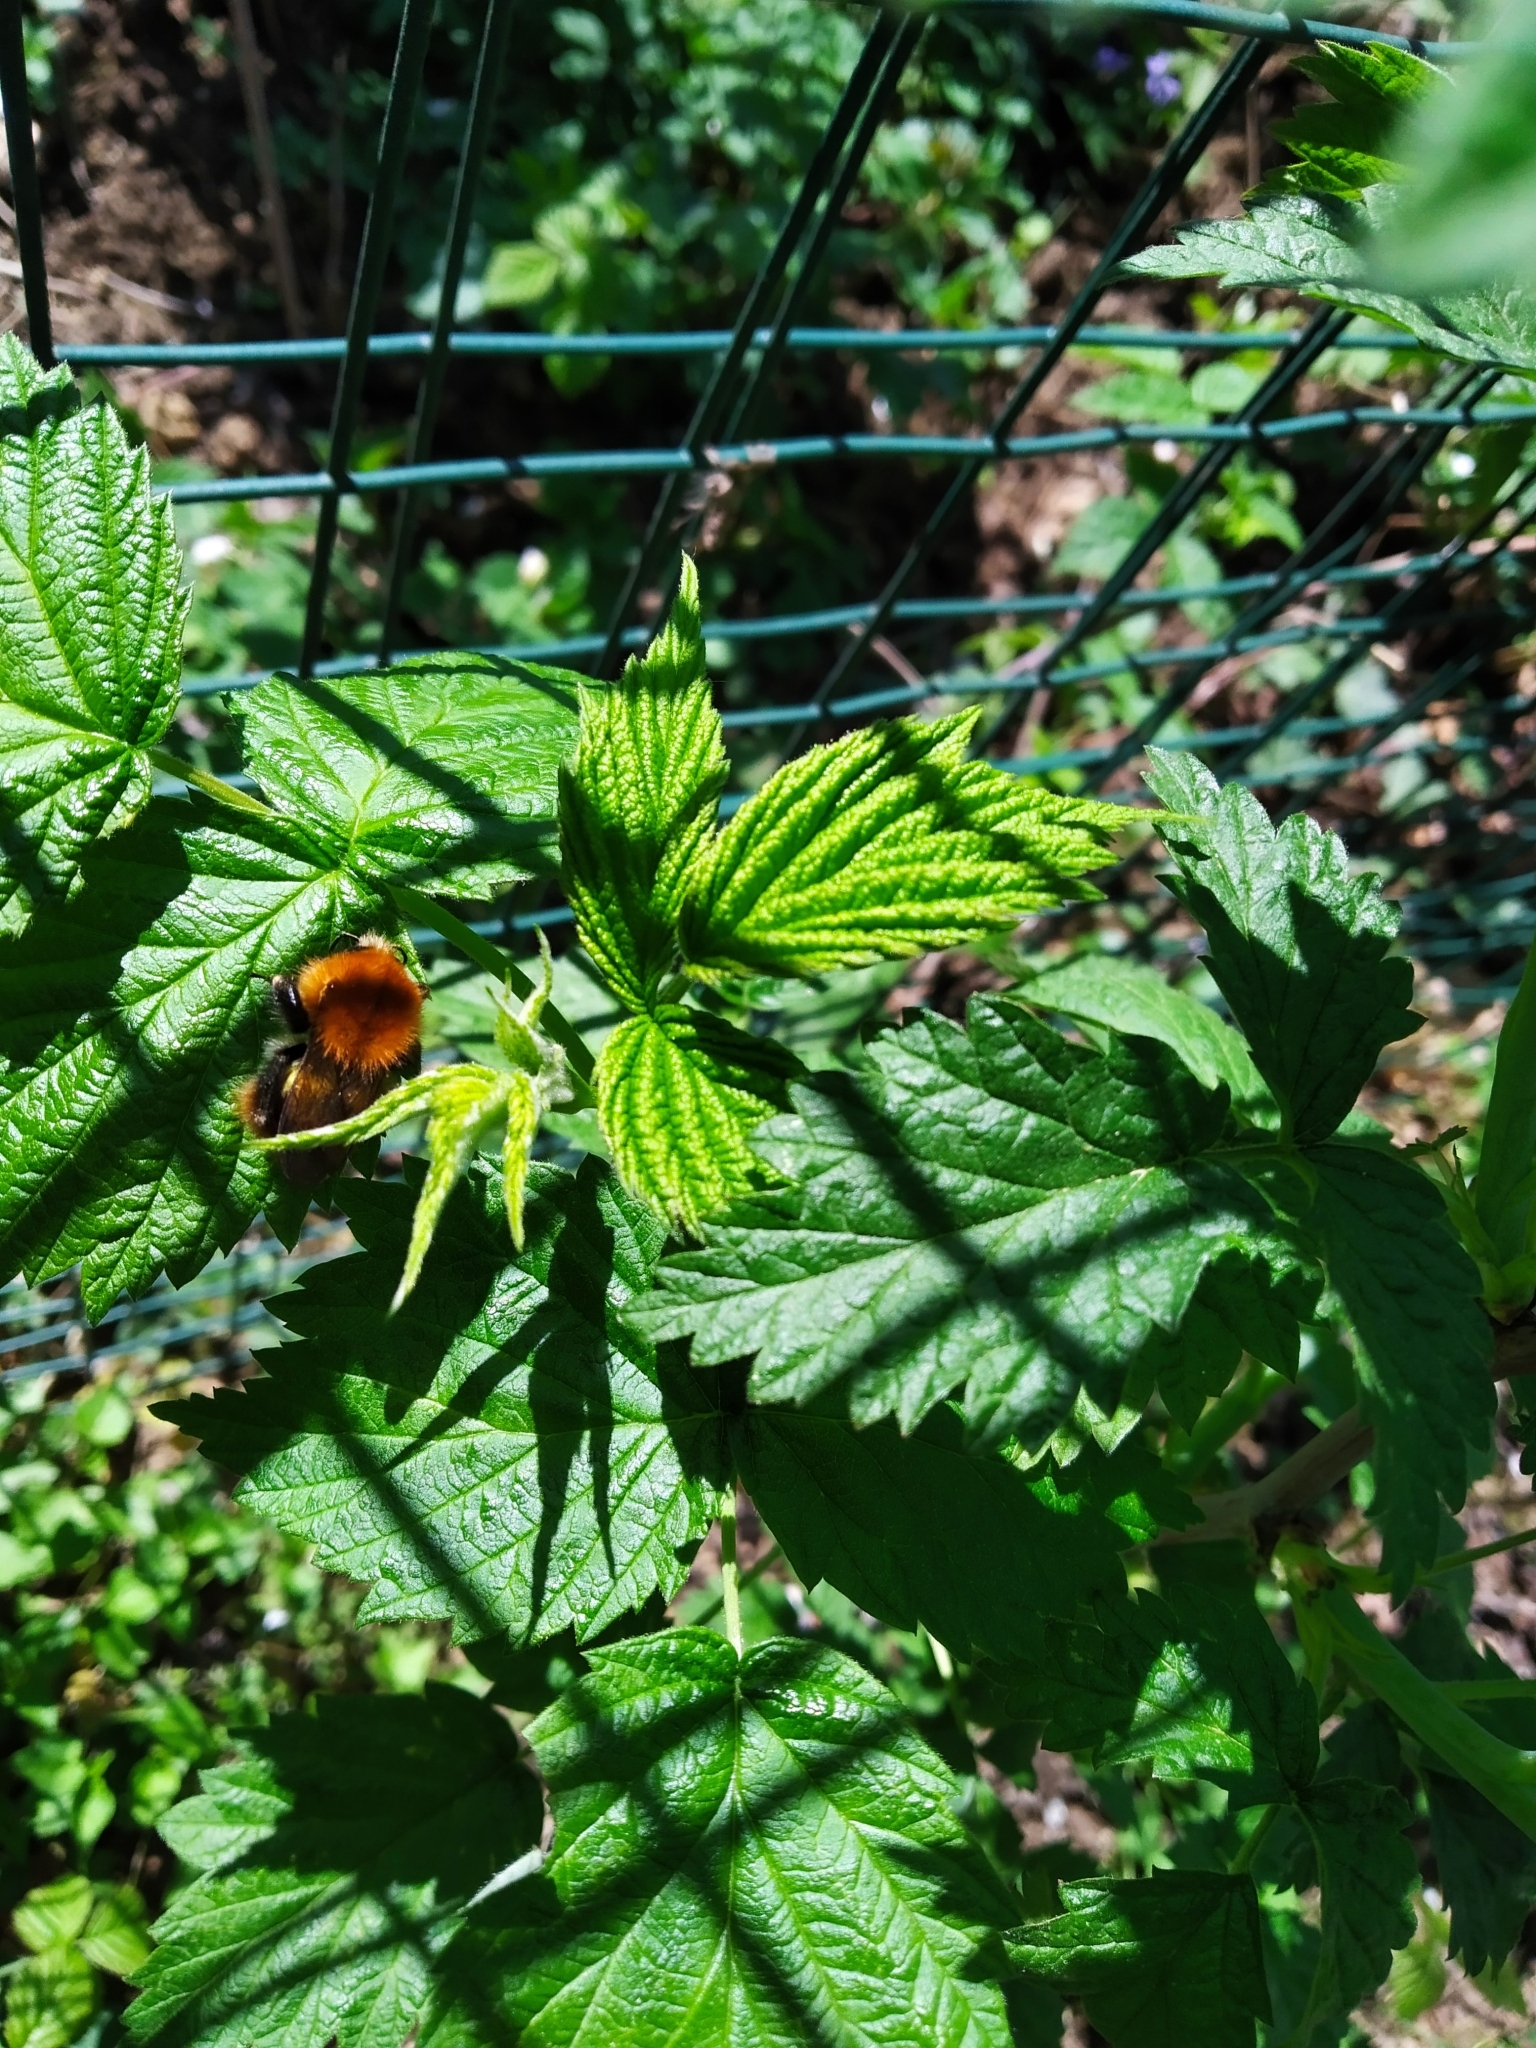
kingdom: Animalia
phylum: Arthropoda
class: Insecta
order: Hymenoptera
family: Apidae
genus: Bombus
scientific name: Bombus pascuorum
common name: Common carder bee
